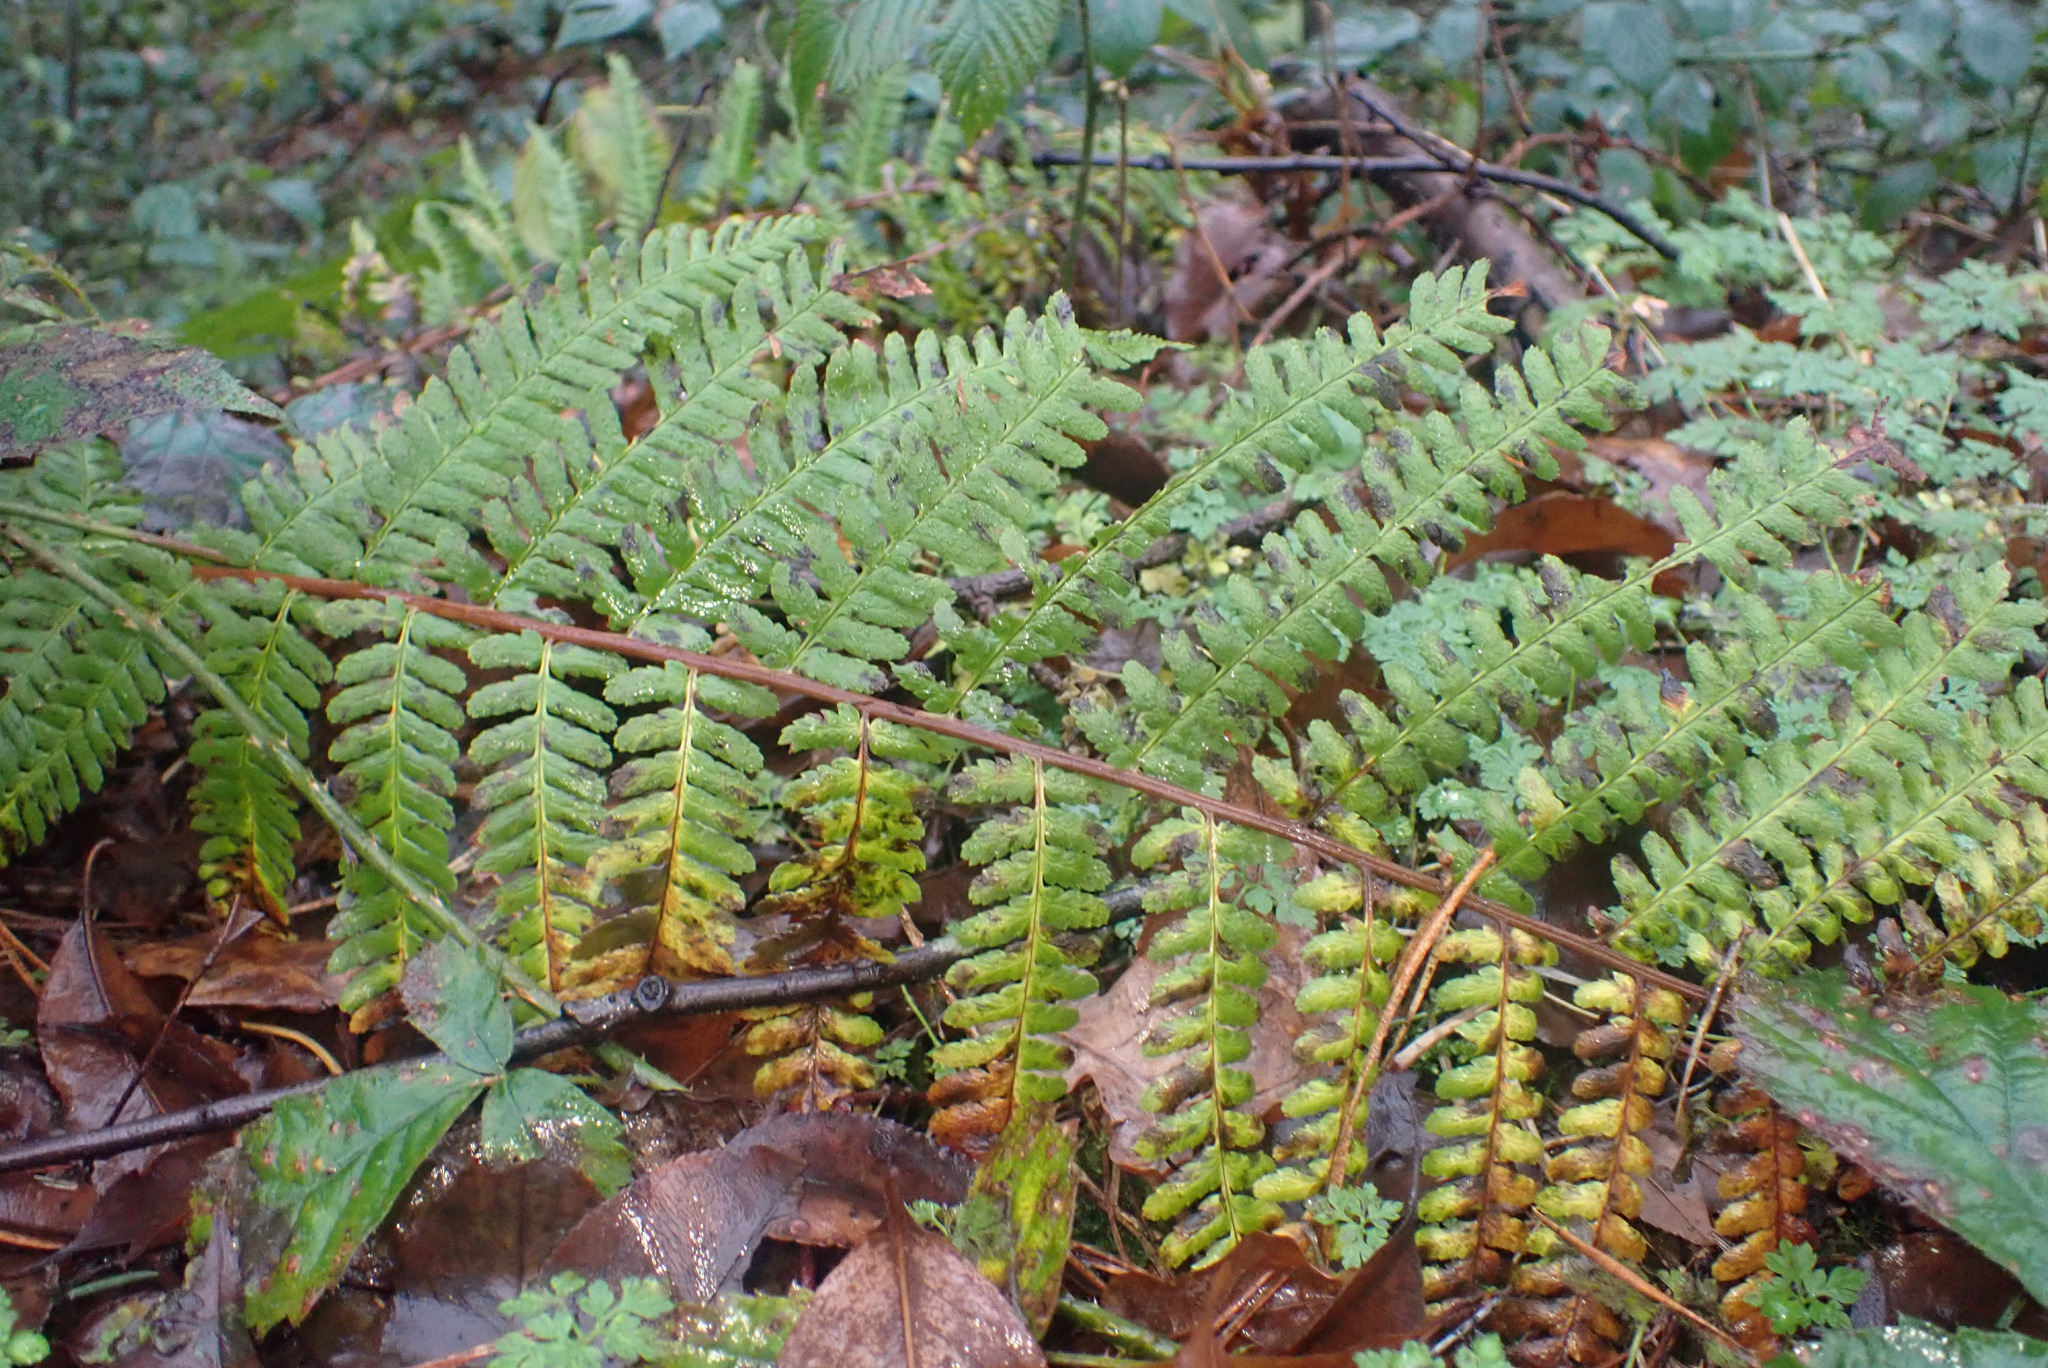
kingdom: Plantae
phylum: Tracheophyta
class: Polypodiopsida
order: Polypodiales
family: Dryopteridaceae
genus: Dryopteris
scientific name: Dryopteris filix-mas
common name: Male fern
